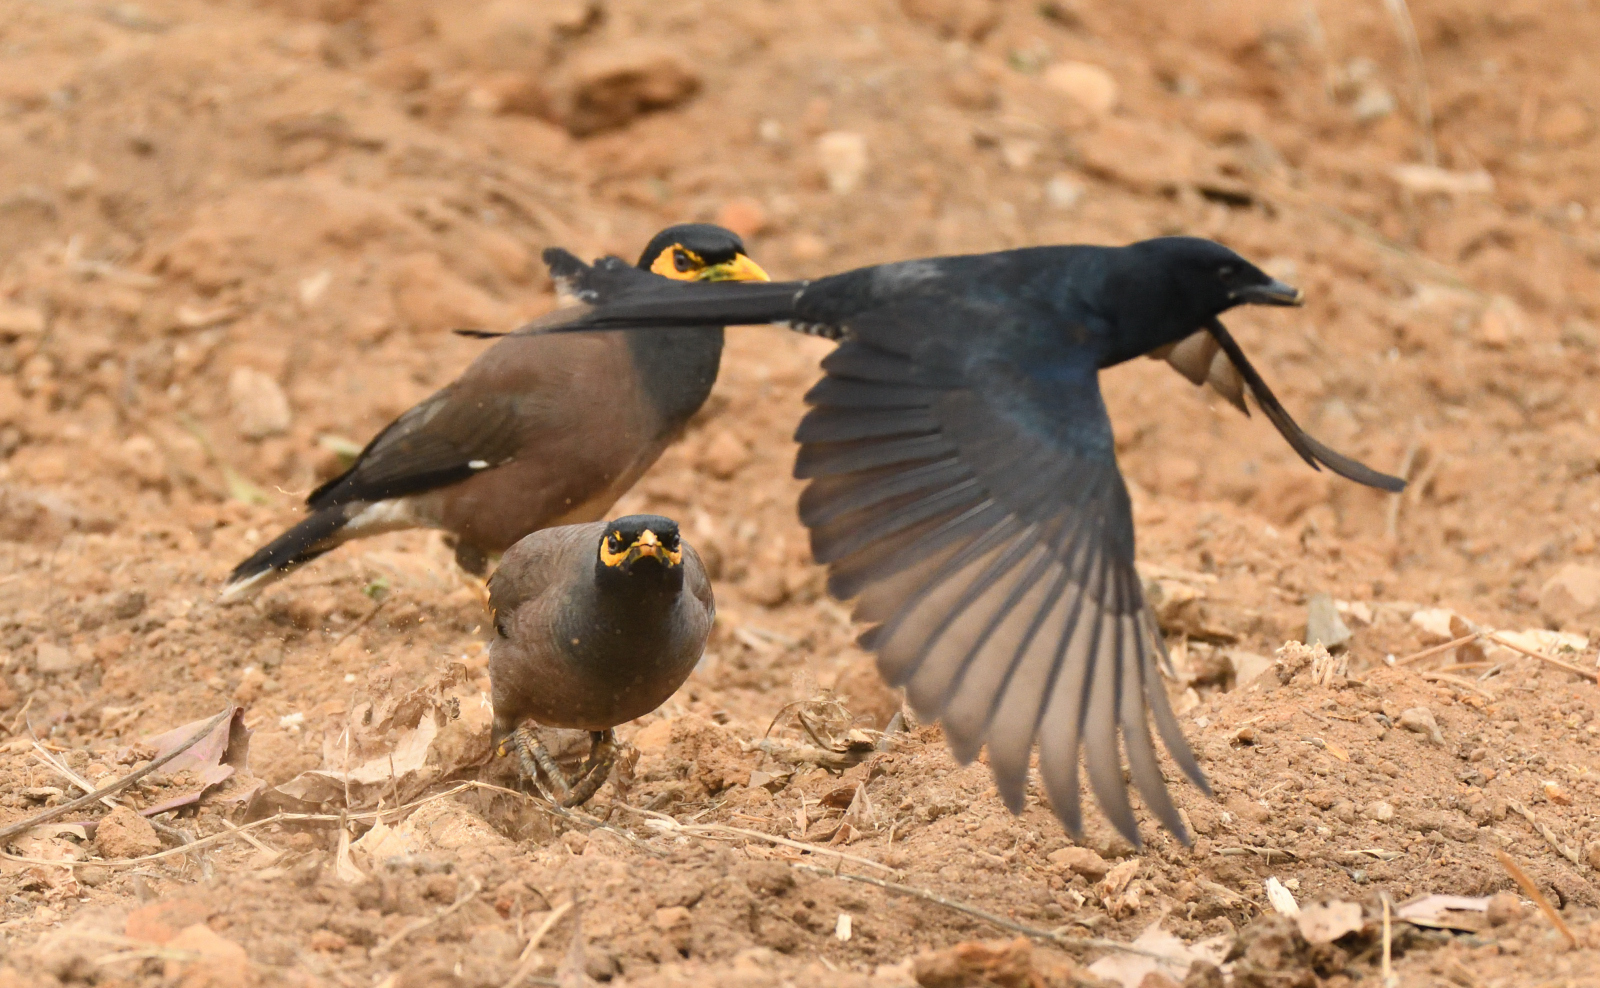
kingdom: Animalia
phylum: Chordata
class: Aves
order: Passeriformes
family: Dicruridae
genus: Dicrurus
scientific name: Dicrurus macrocercus
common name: Black drongo
